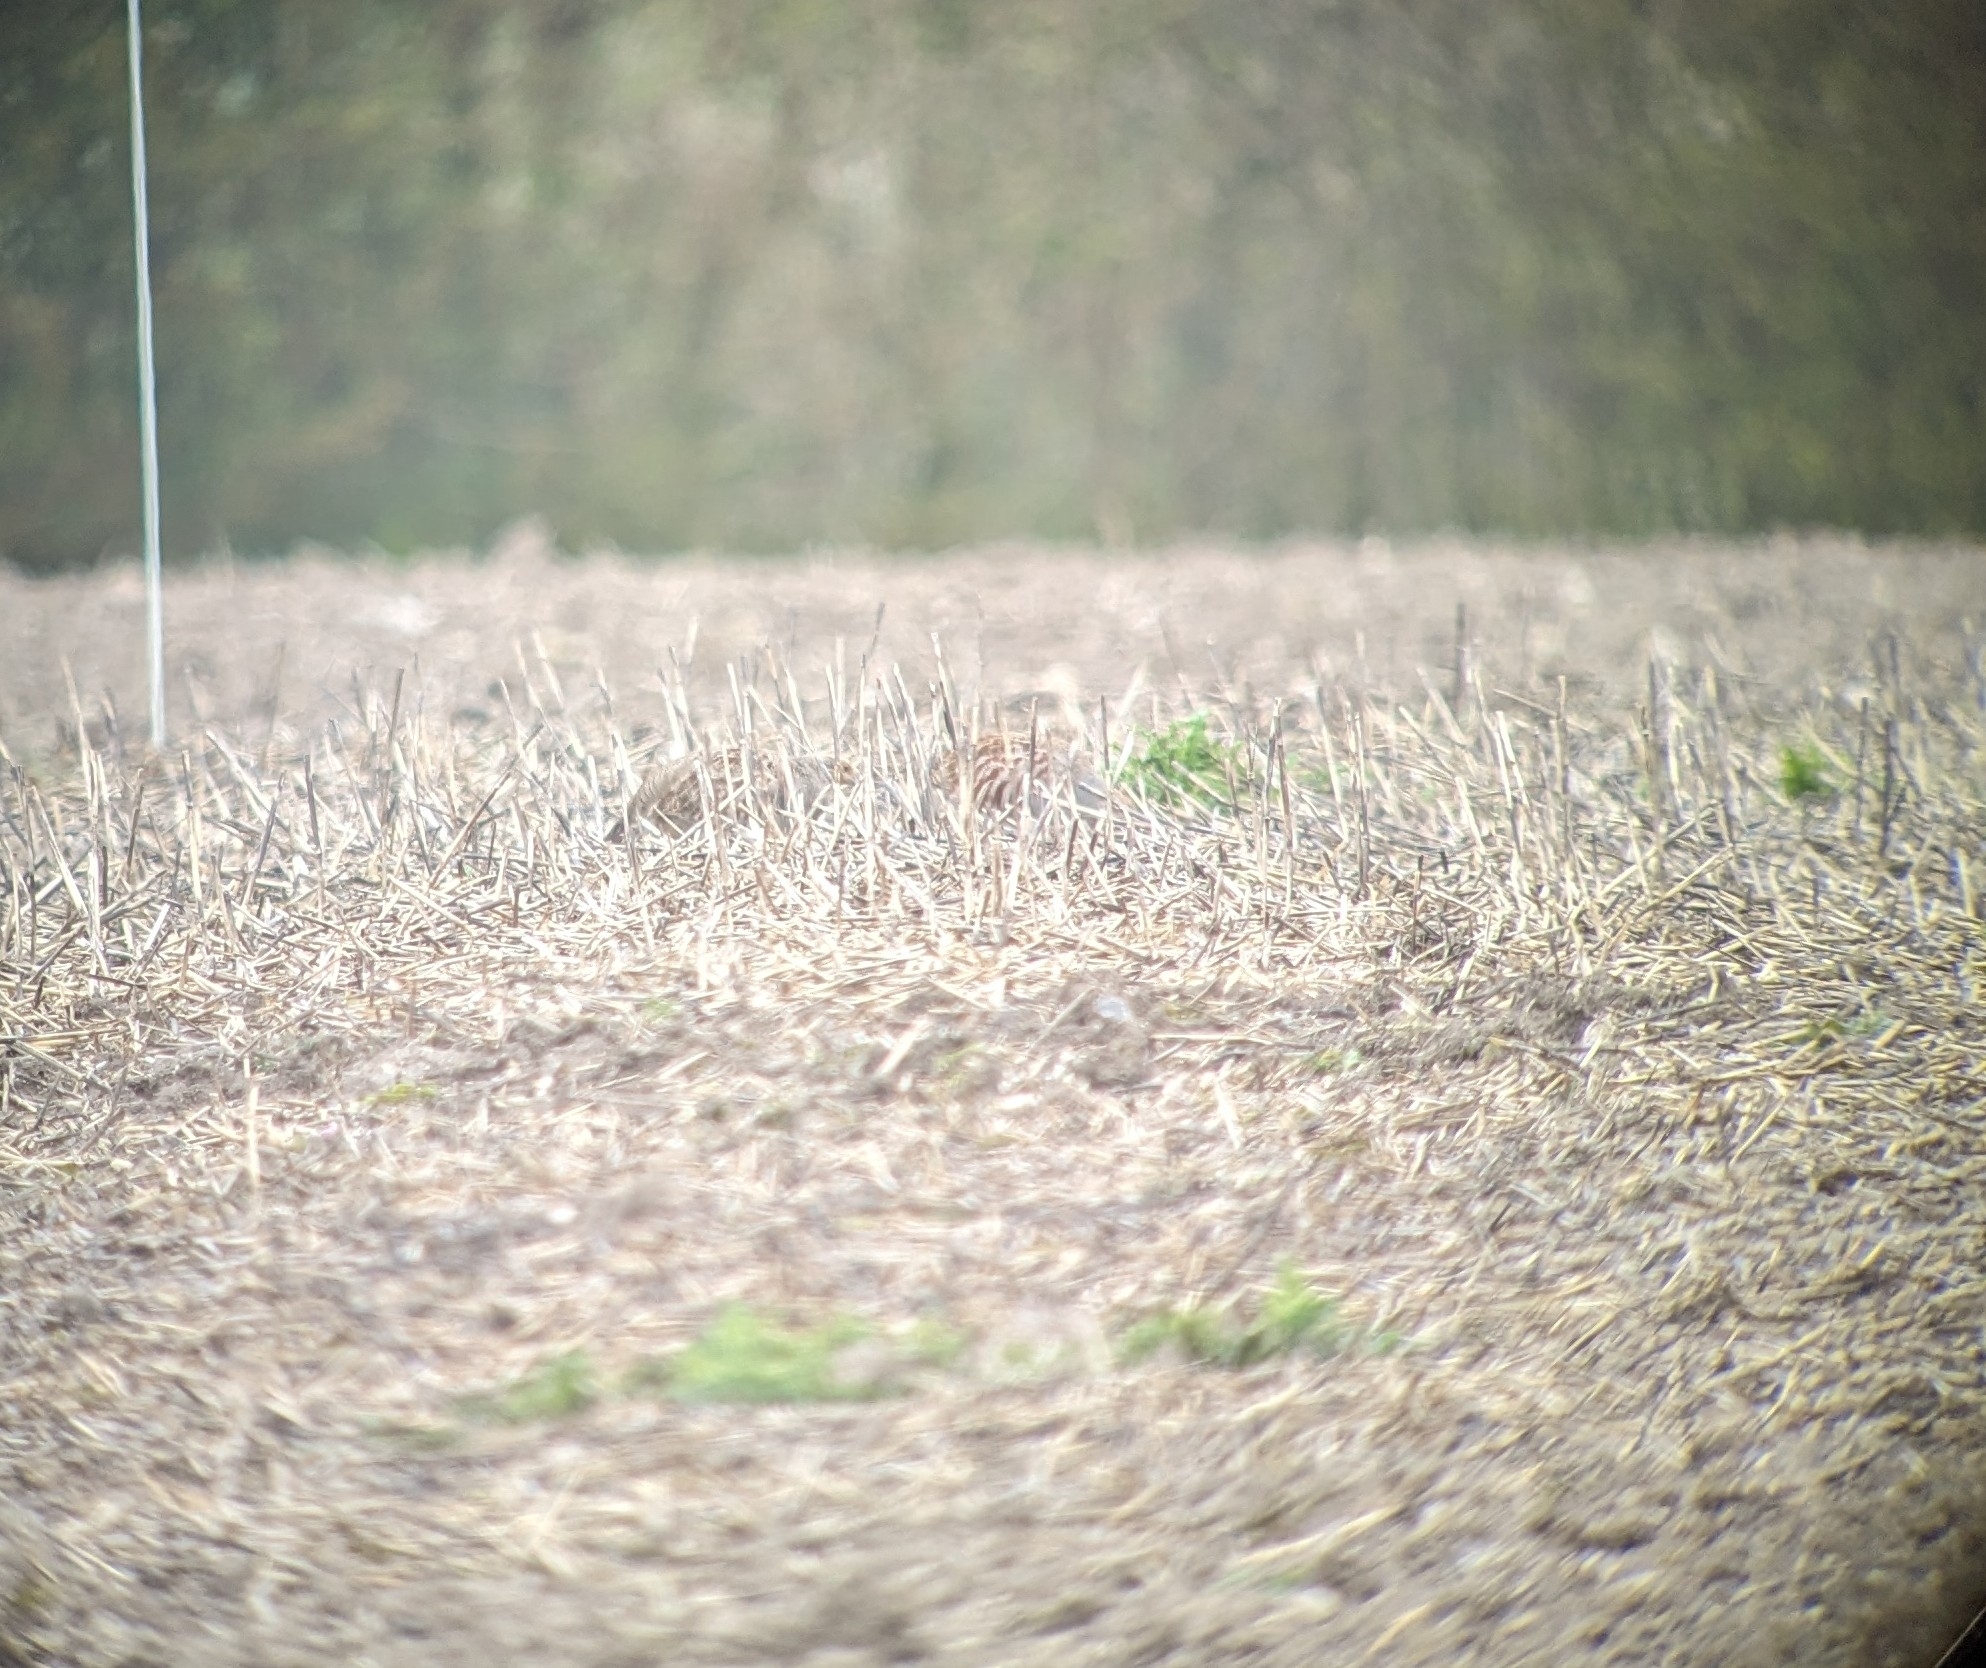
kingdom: Animalia
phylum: Chordata
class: Aves
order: Galliformes
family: Phasianidae
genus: Perdix
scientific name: Perdix perdix
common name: Grey partridge
